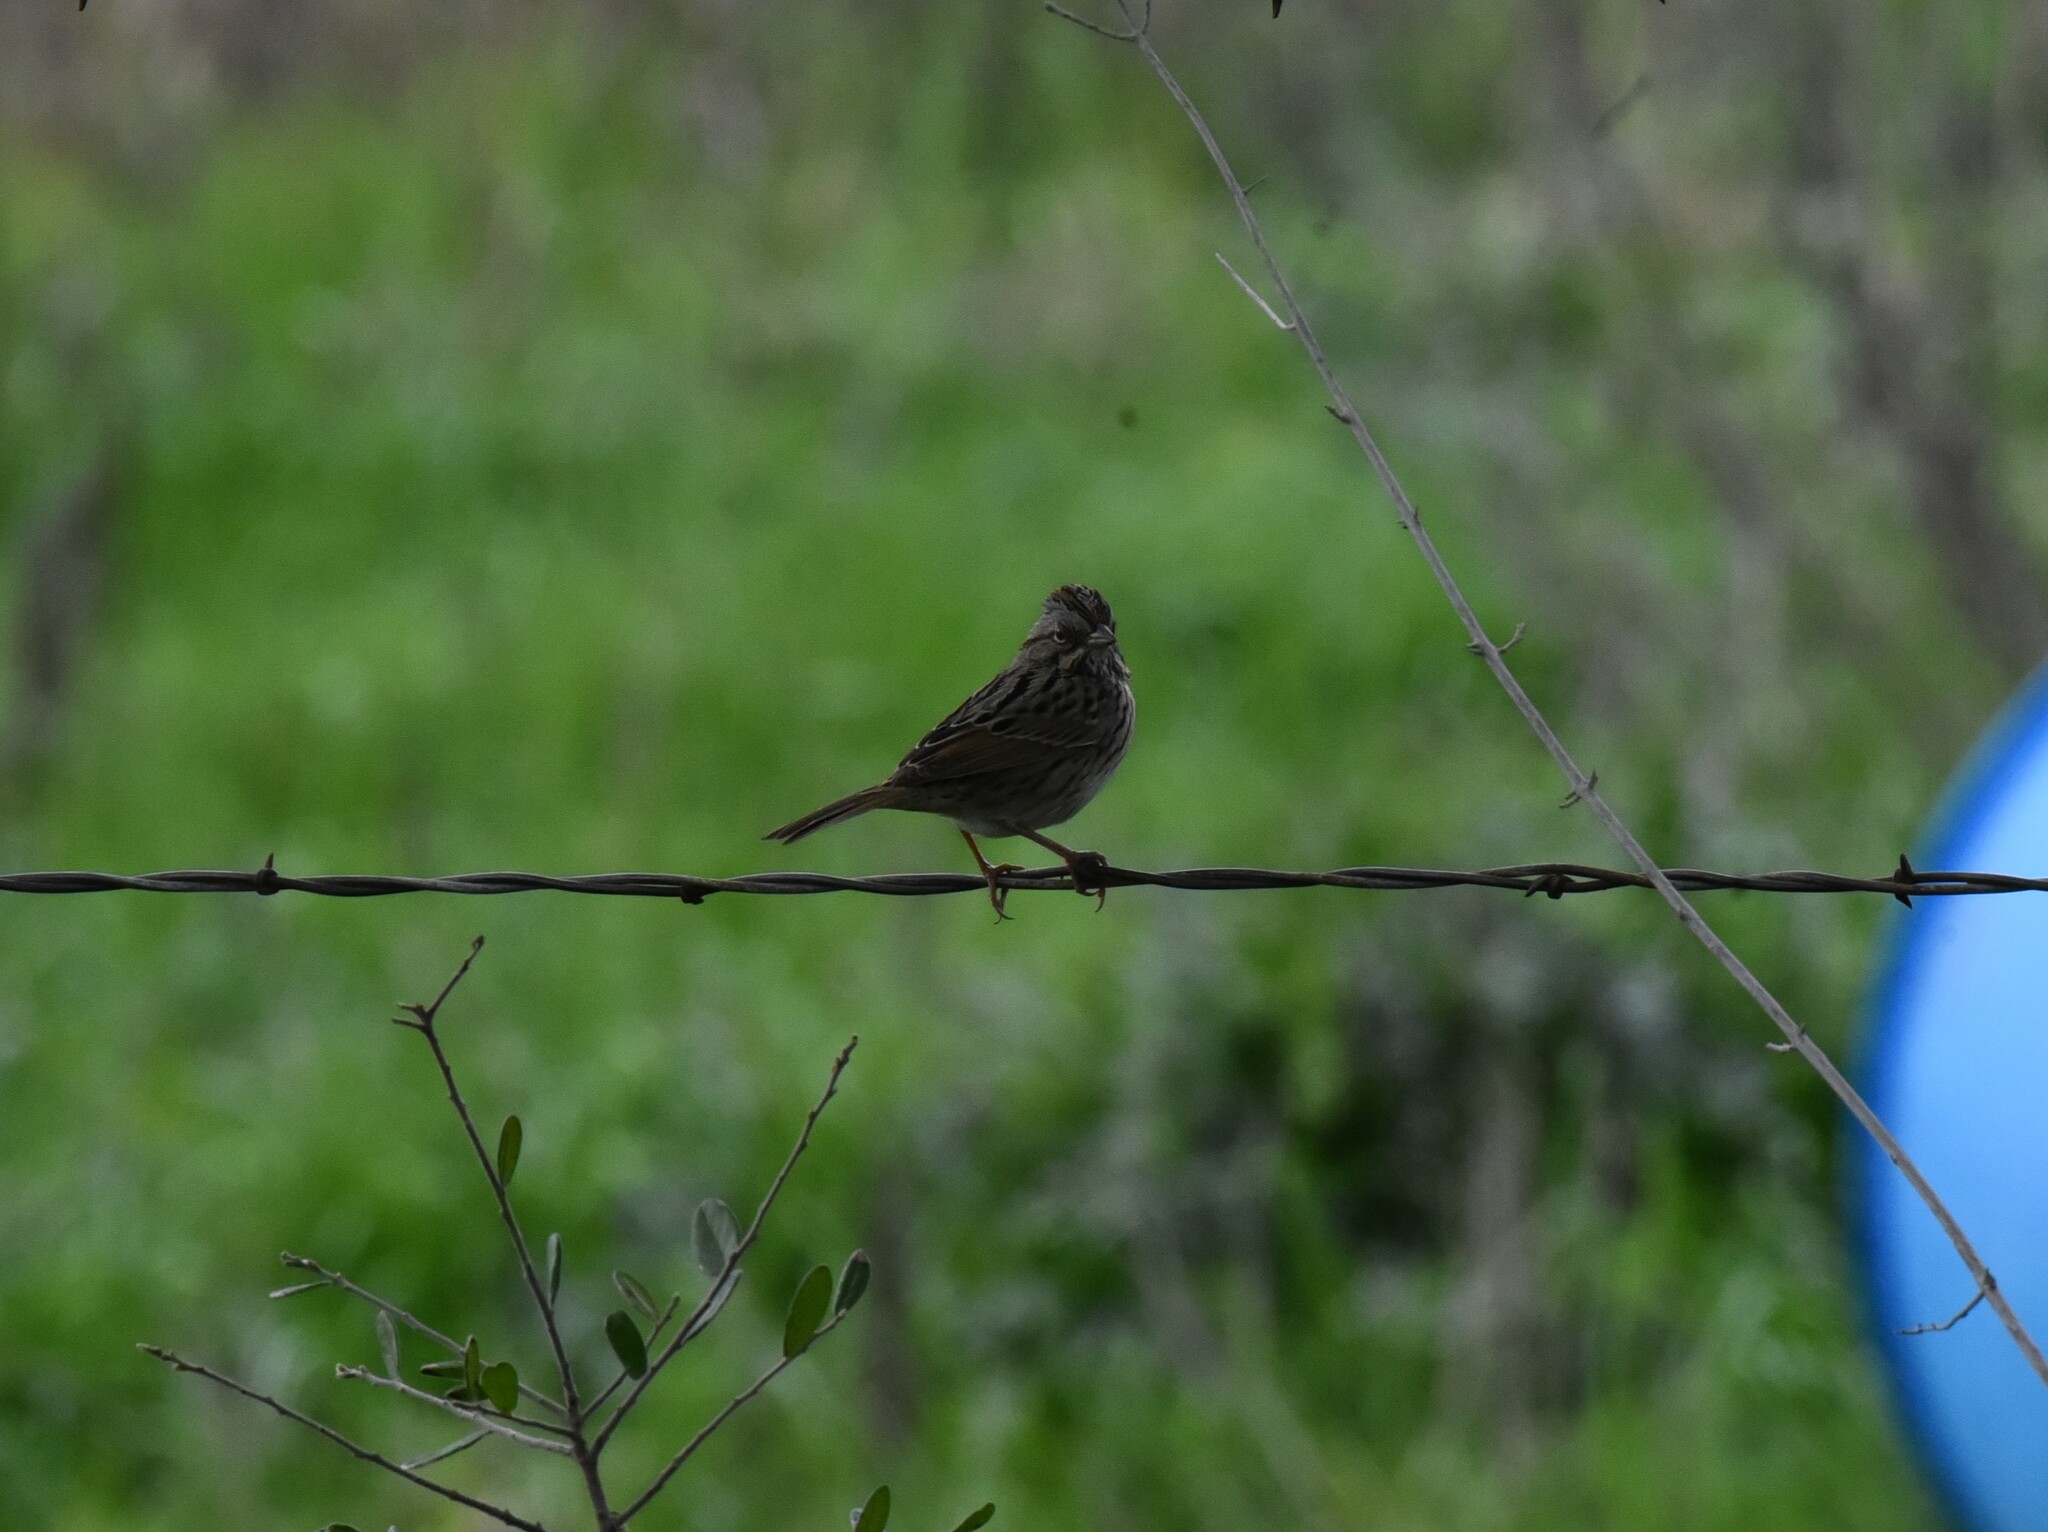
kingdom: Animalia
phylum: Chordata
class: Aves
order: Passeriformes
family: Passerellidae
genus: Melospiza
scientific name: Melospiza lincolnii
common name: Lincoln's sparrow
